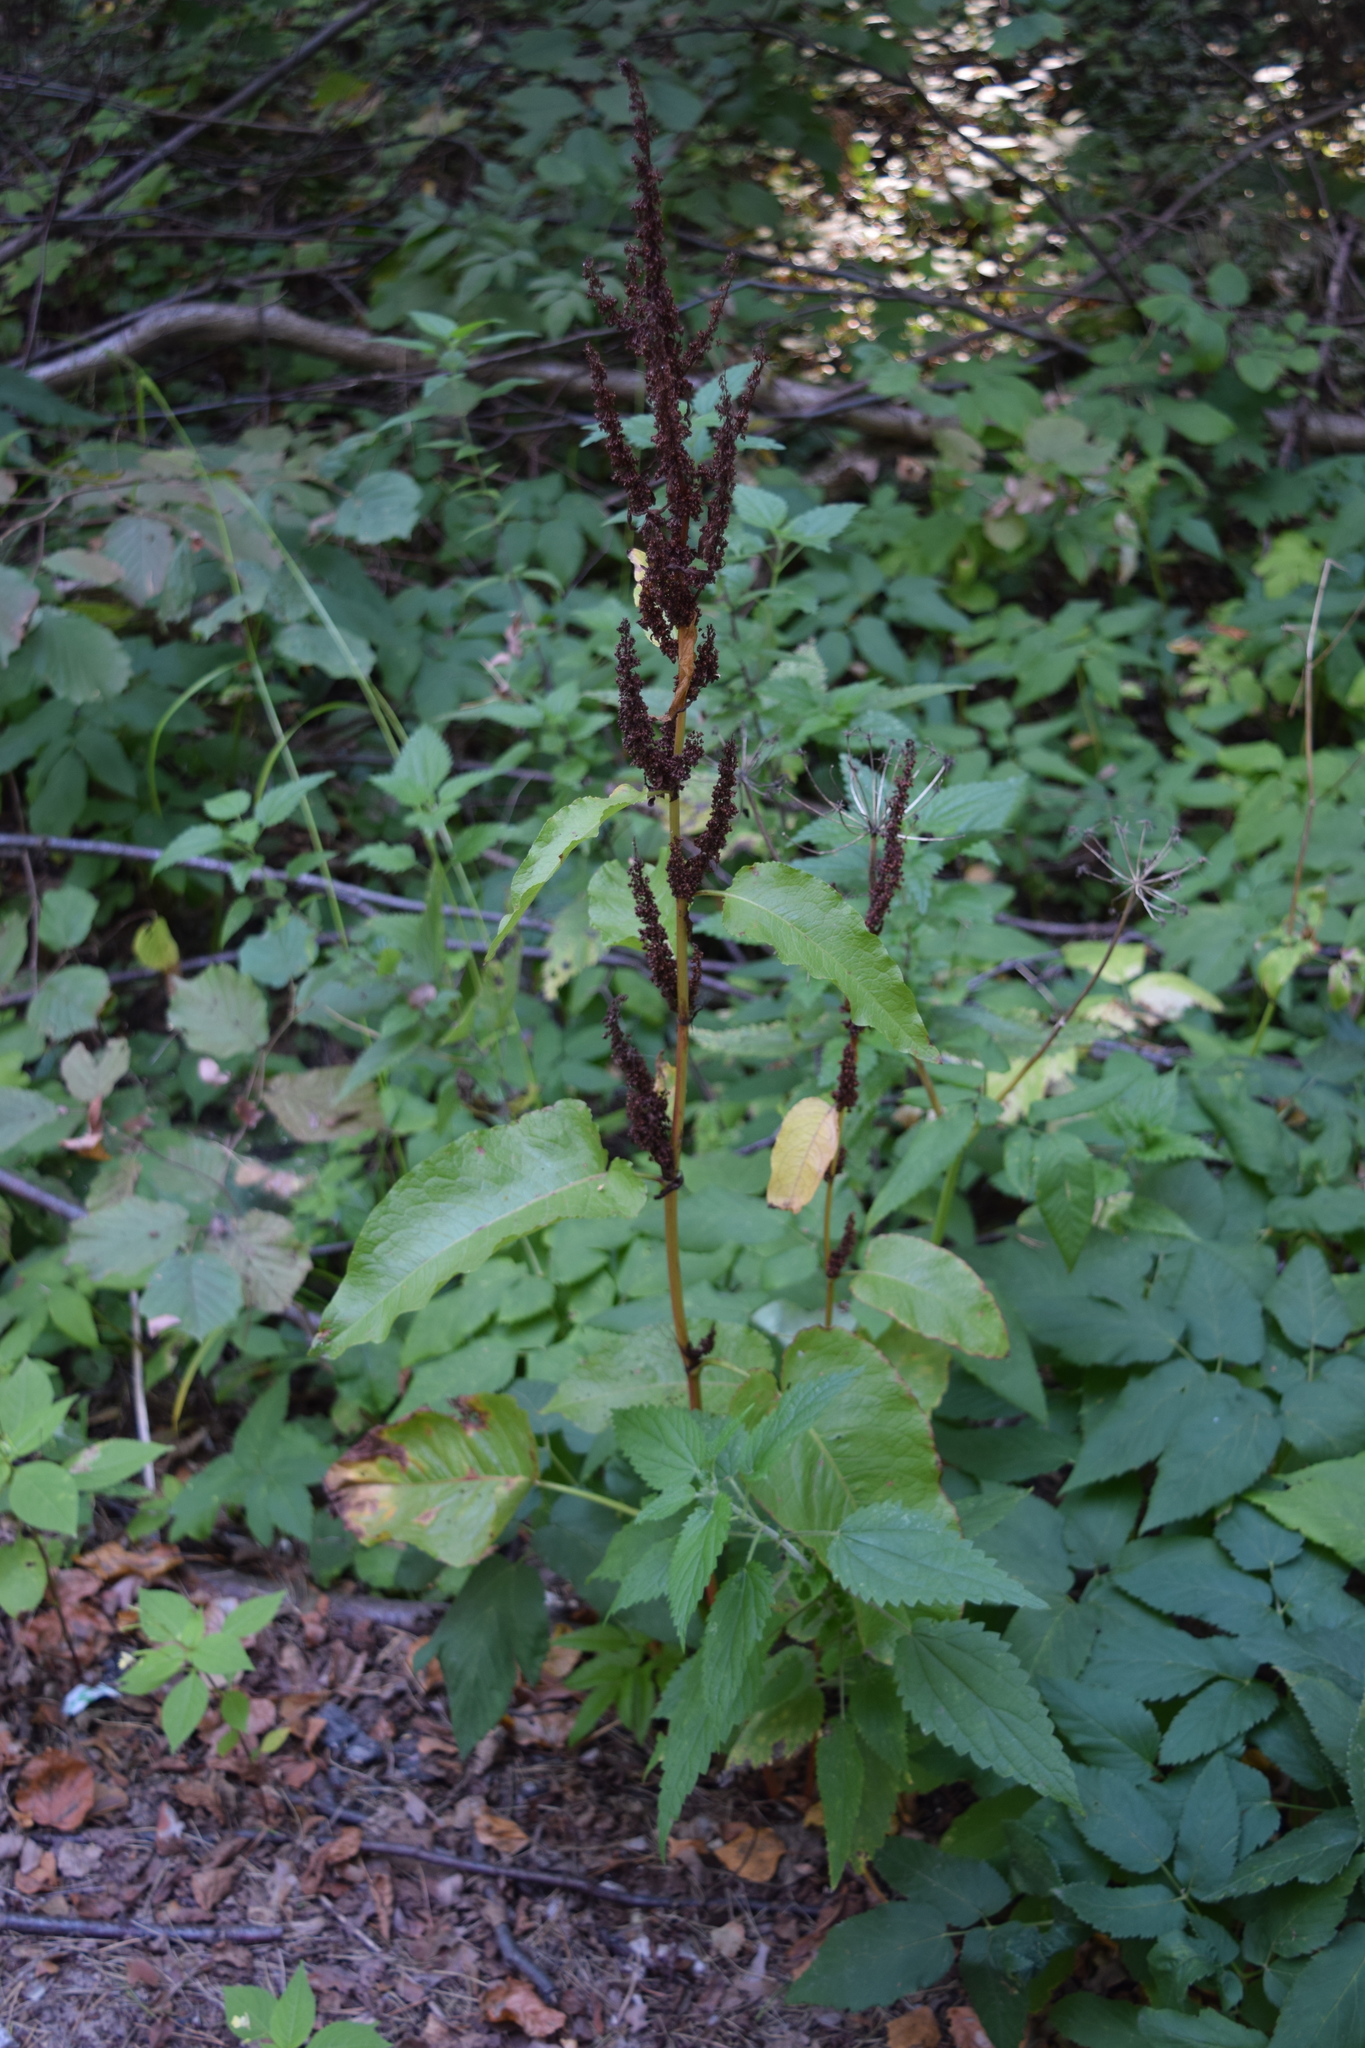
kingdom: Plantae
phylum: Tracheophyta
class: Magnoliopsida
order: Caryophyllales
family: Polygonaceae
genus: Rumex
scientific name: Rumex obtusifolius
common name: Bitter dock
